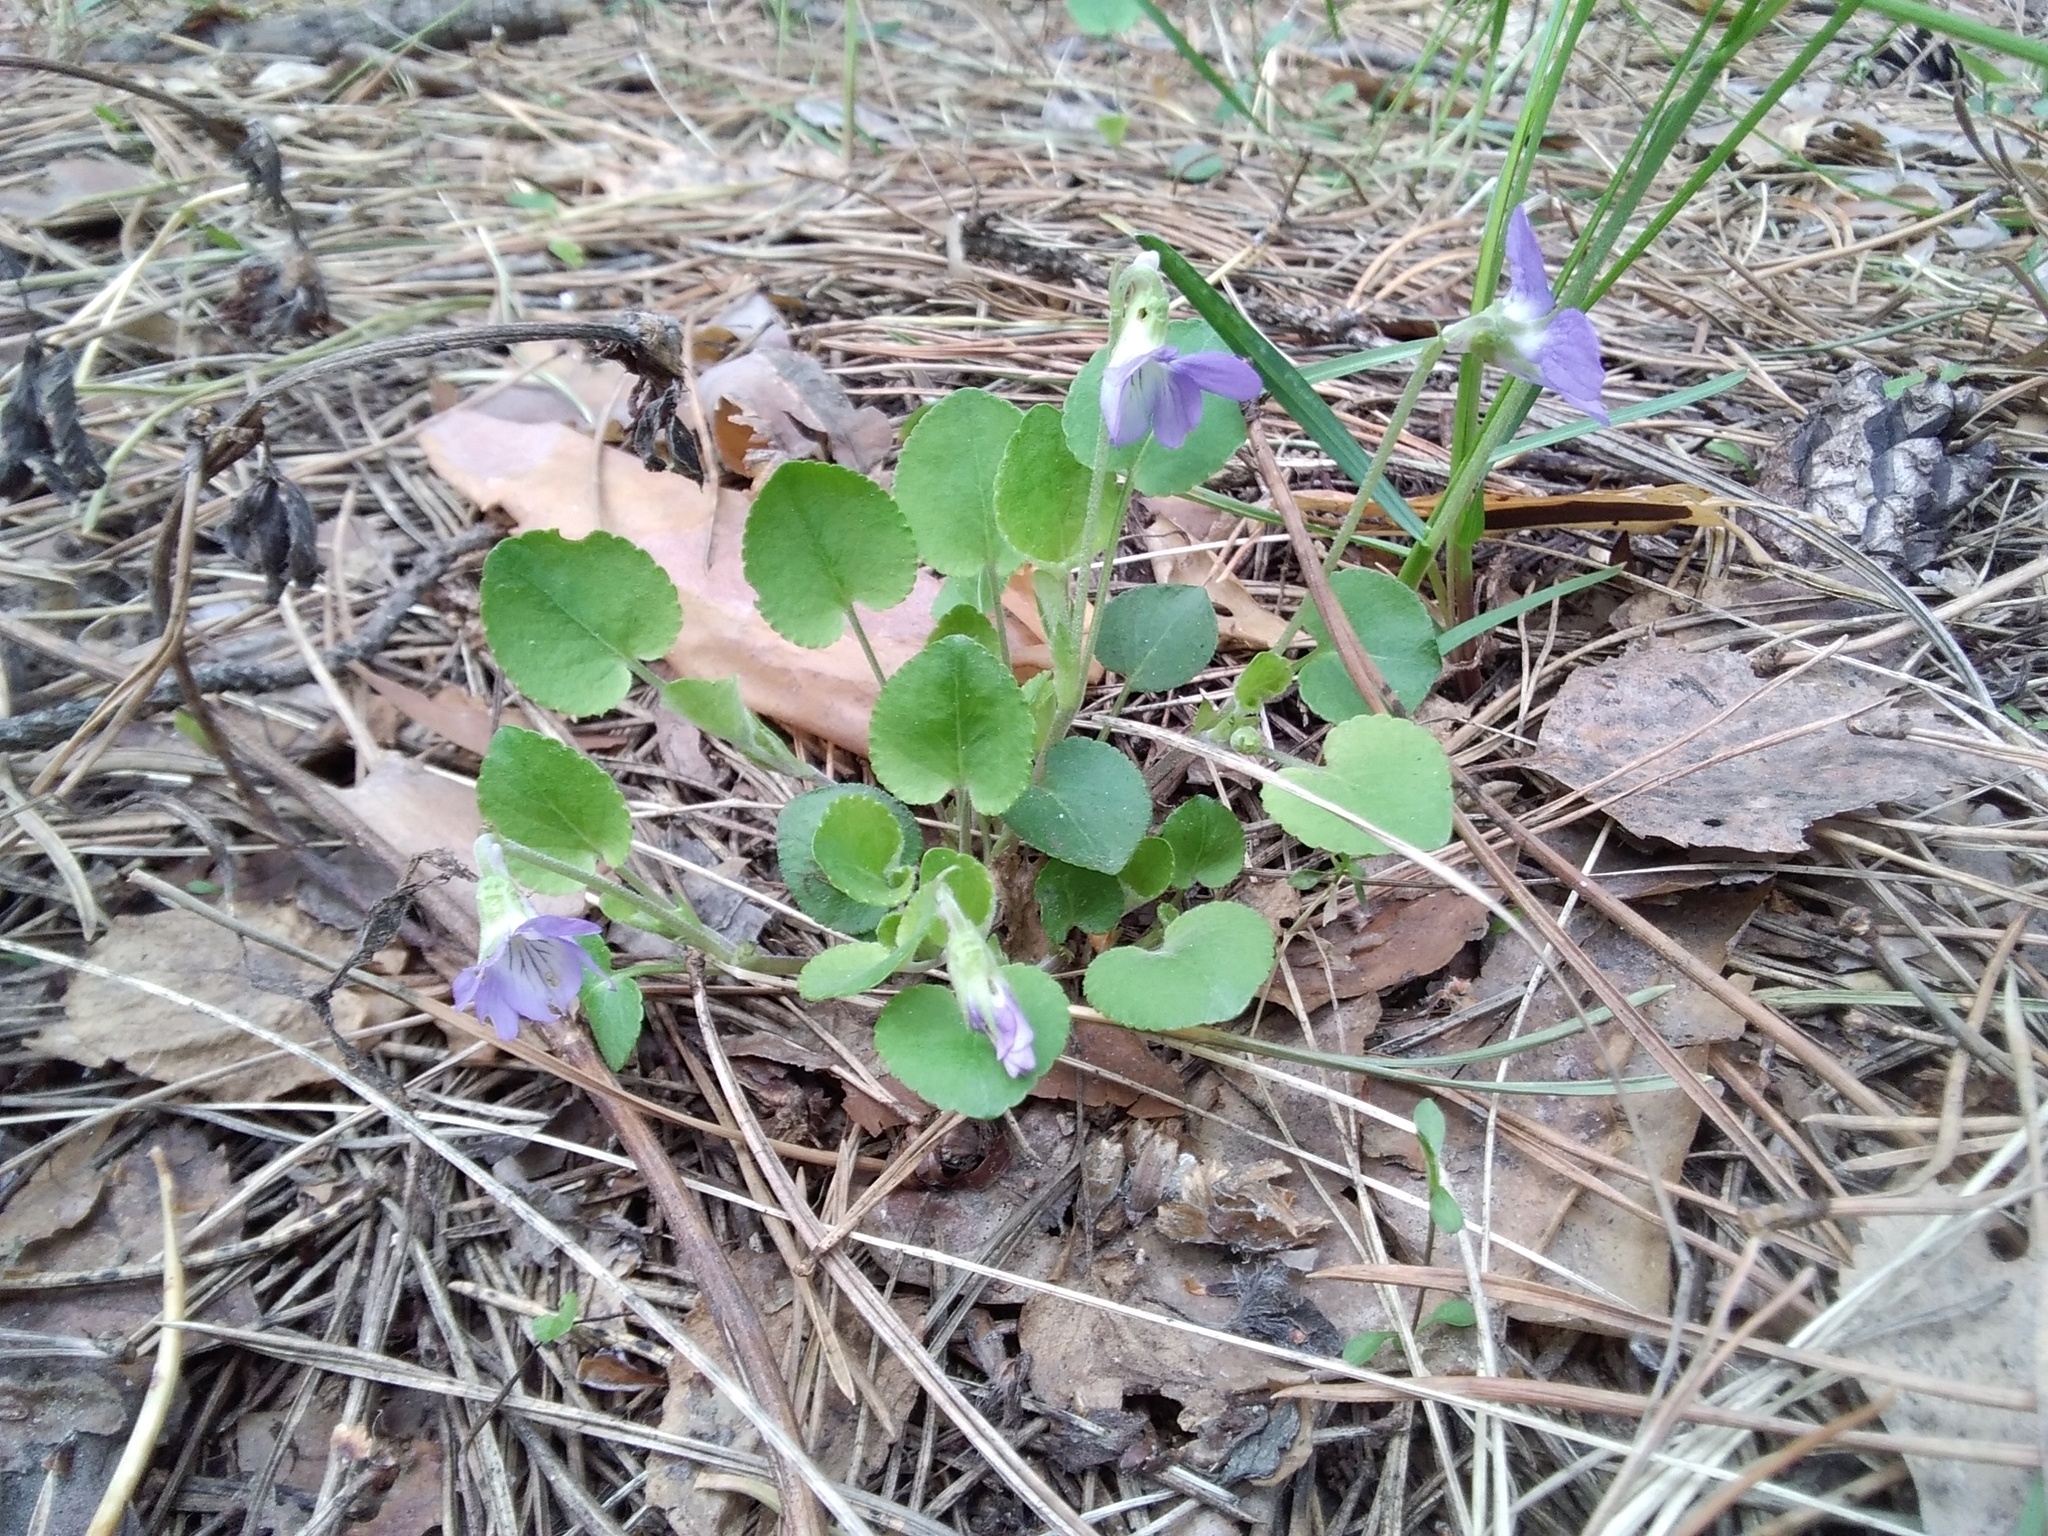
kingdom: Plantae
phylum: Tracheophyta
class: Magnoliopsida
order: Malpighiales
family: Violaceae
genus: Viola
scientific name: Viola rupestris
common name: Teesdale violet
